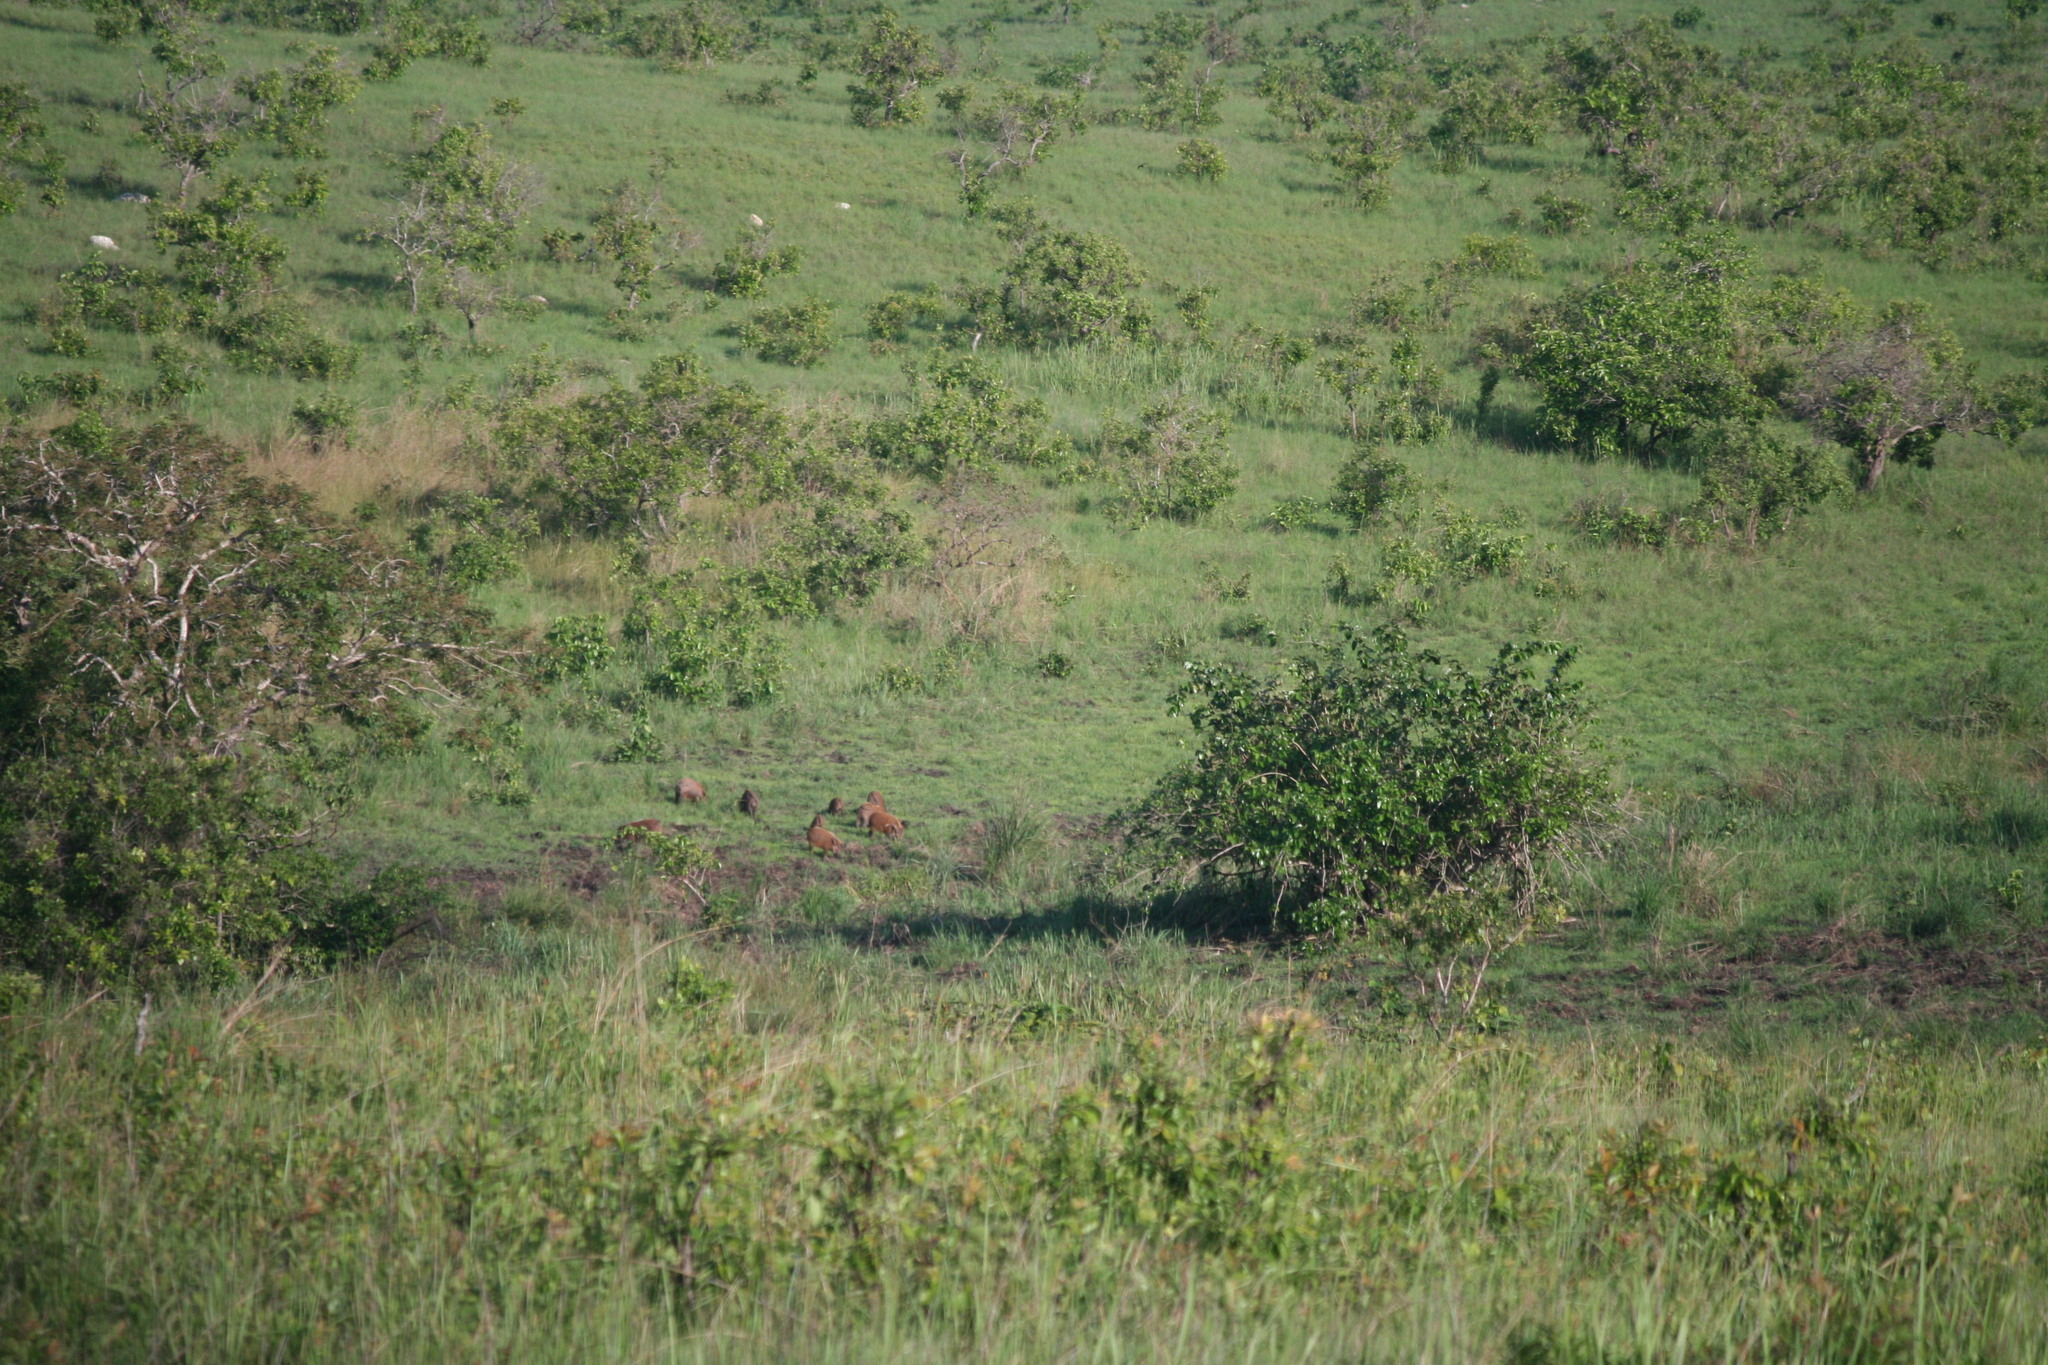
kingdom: Animalia
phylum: Chordata
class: Mammalia
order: Artiodactyla
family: Suidae
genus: Potamochoerus
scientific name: Potamochoerus porcus
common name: Red river hog
